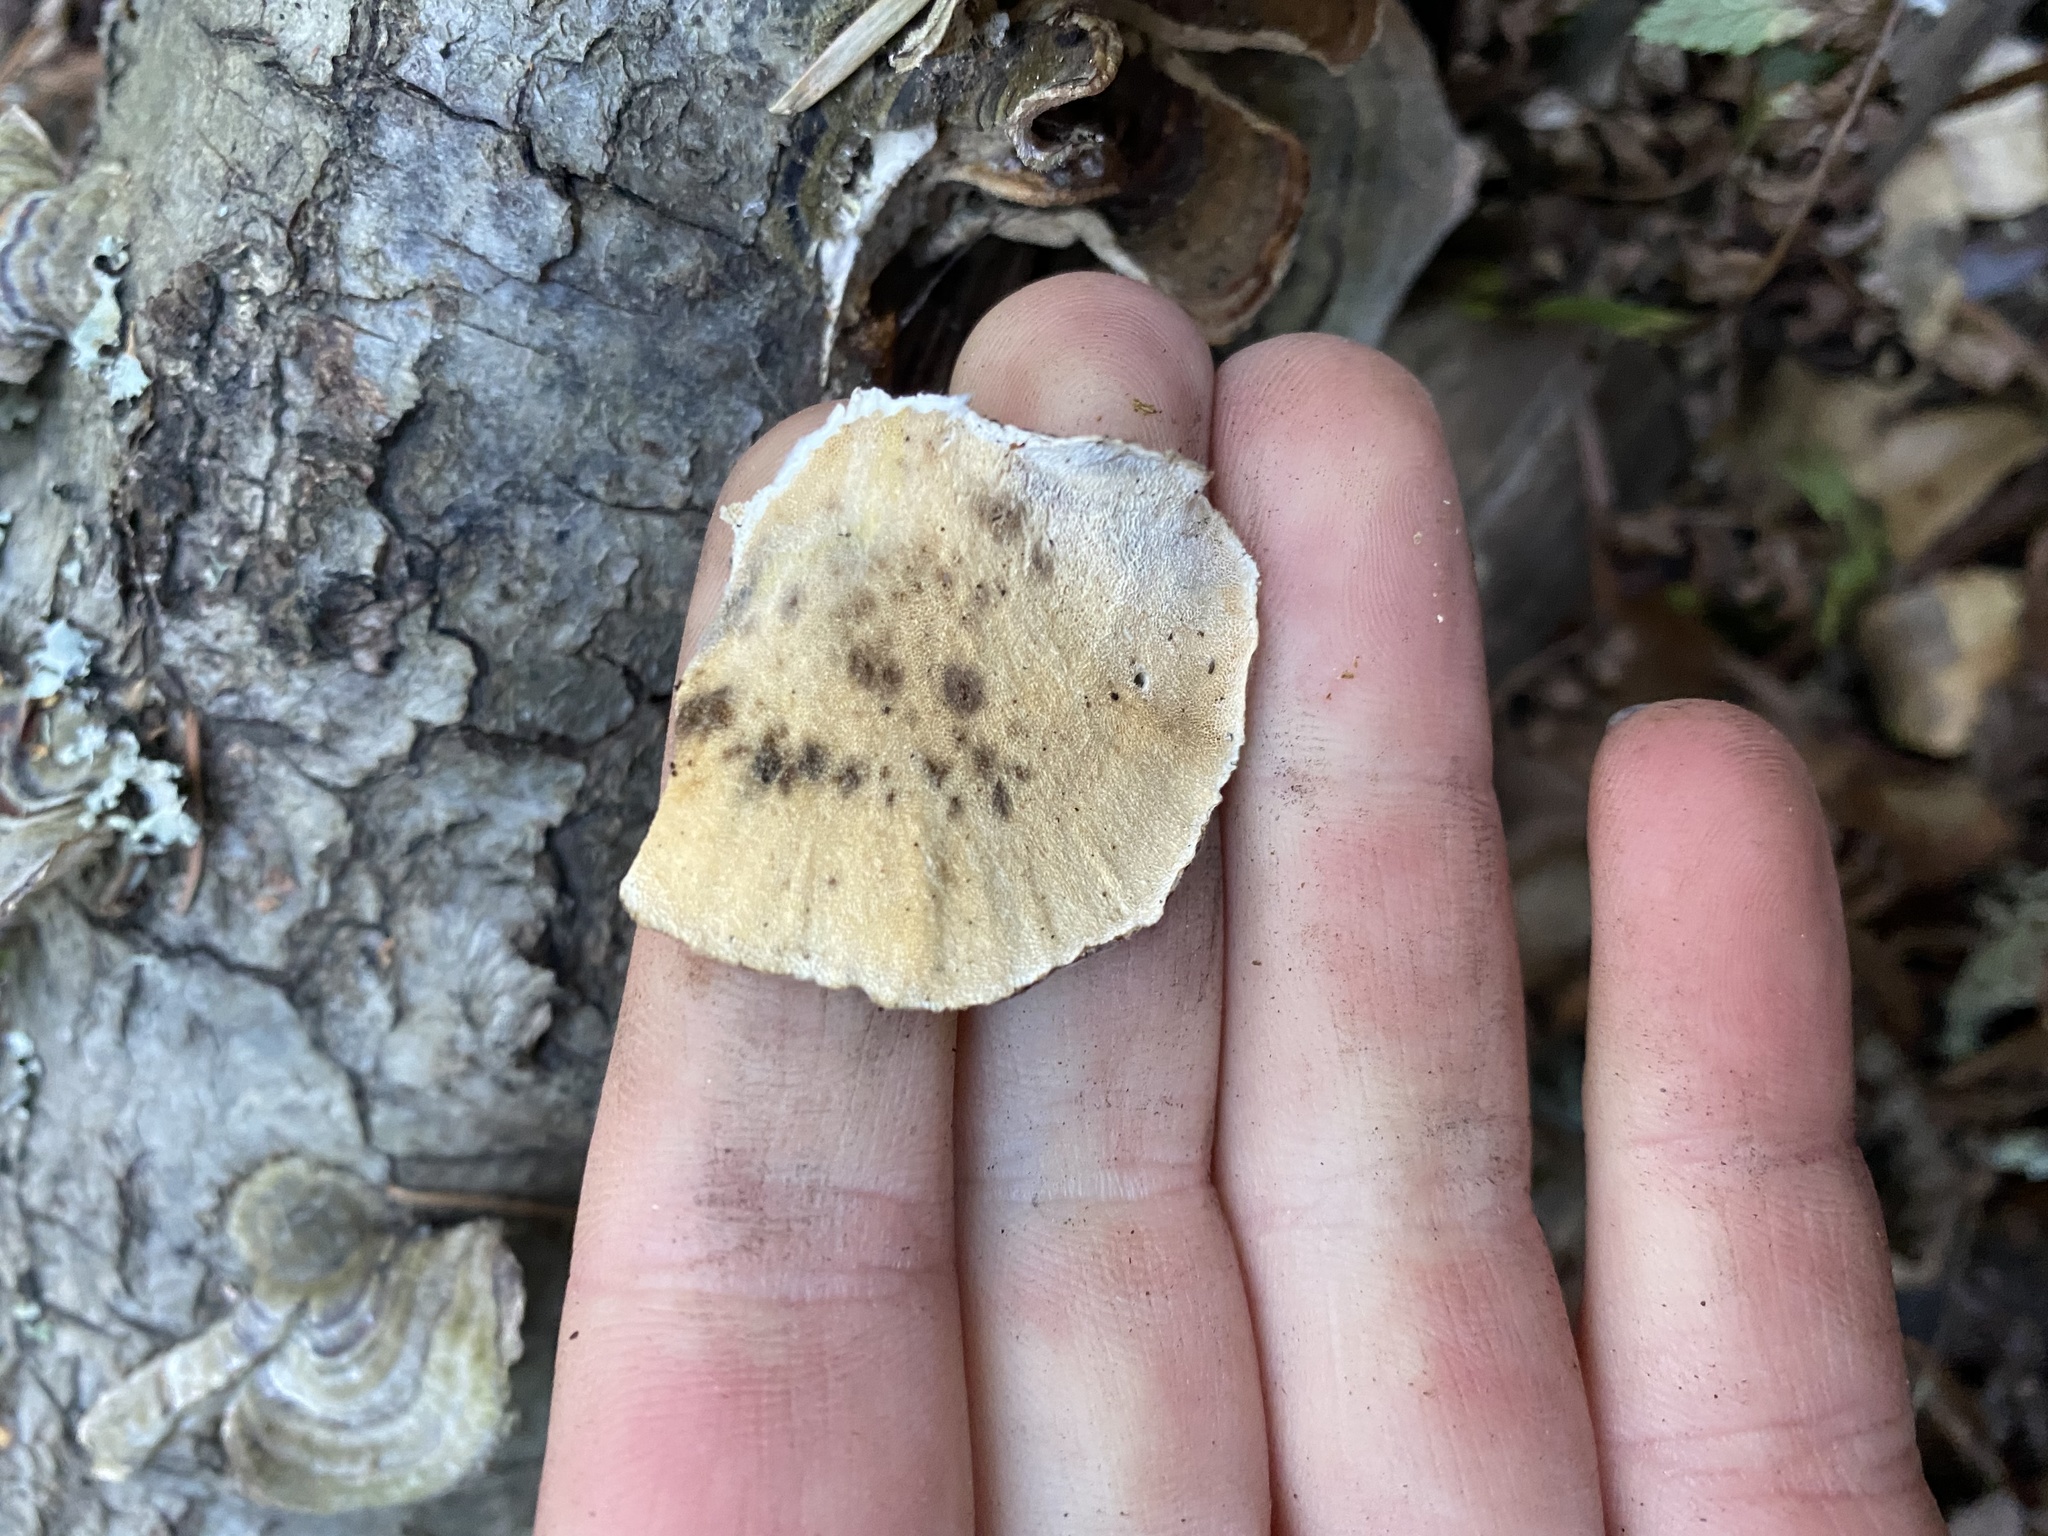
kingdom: Fungi
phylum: Basidiomycota
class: Agaricomycetes
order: Polyporales
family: Polyporaceae
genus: Trametes
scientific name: Trametes versicolor
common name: Turkeytail
